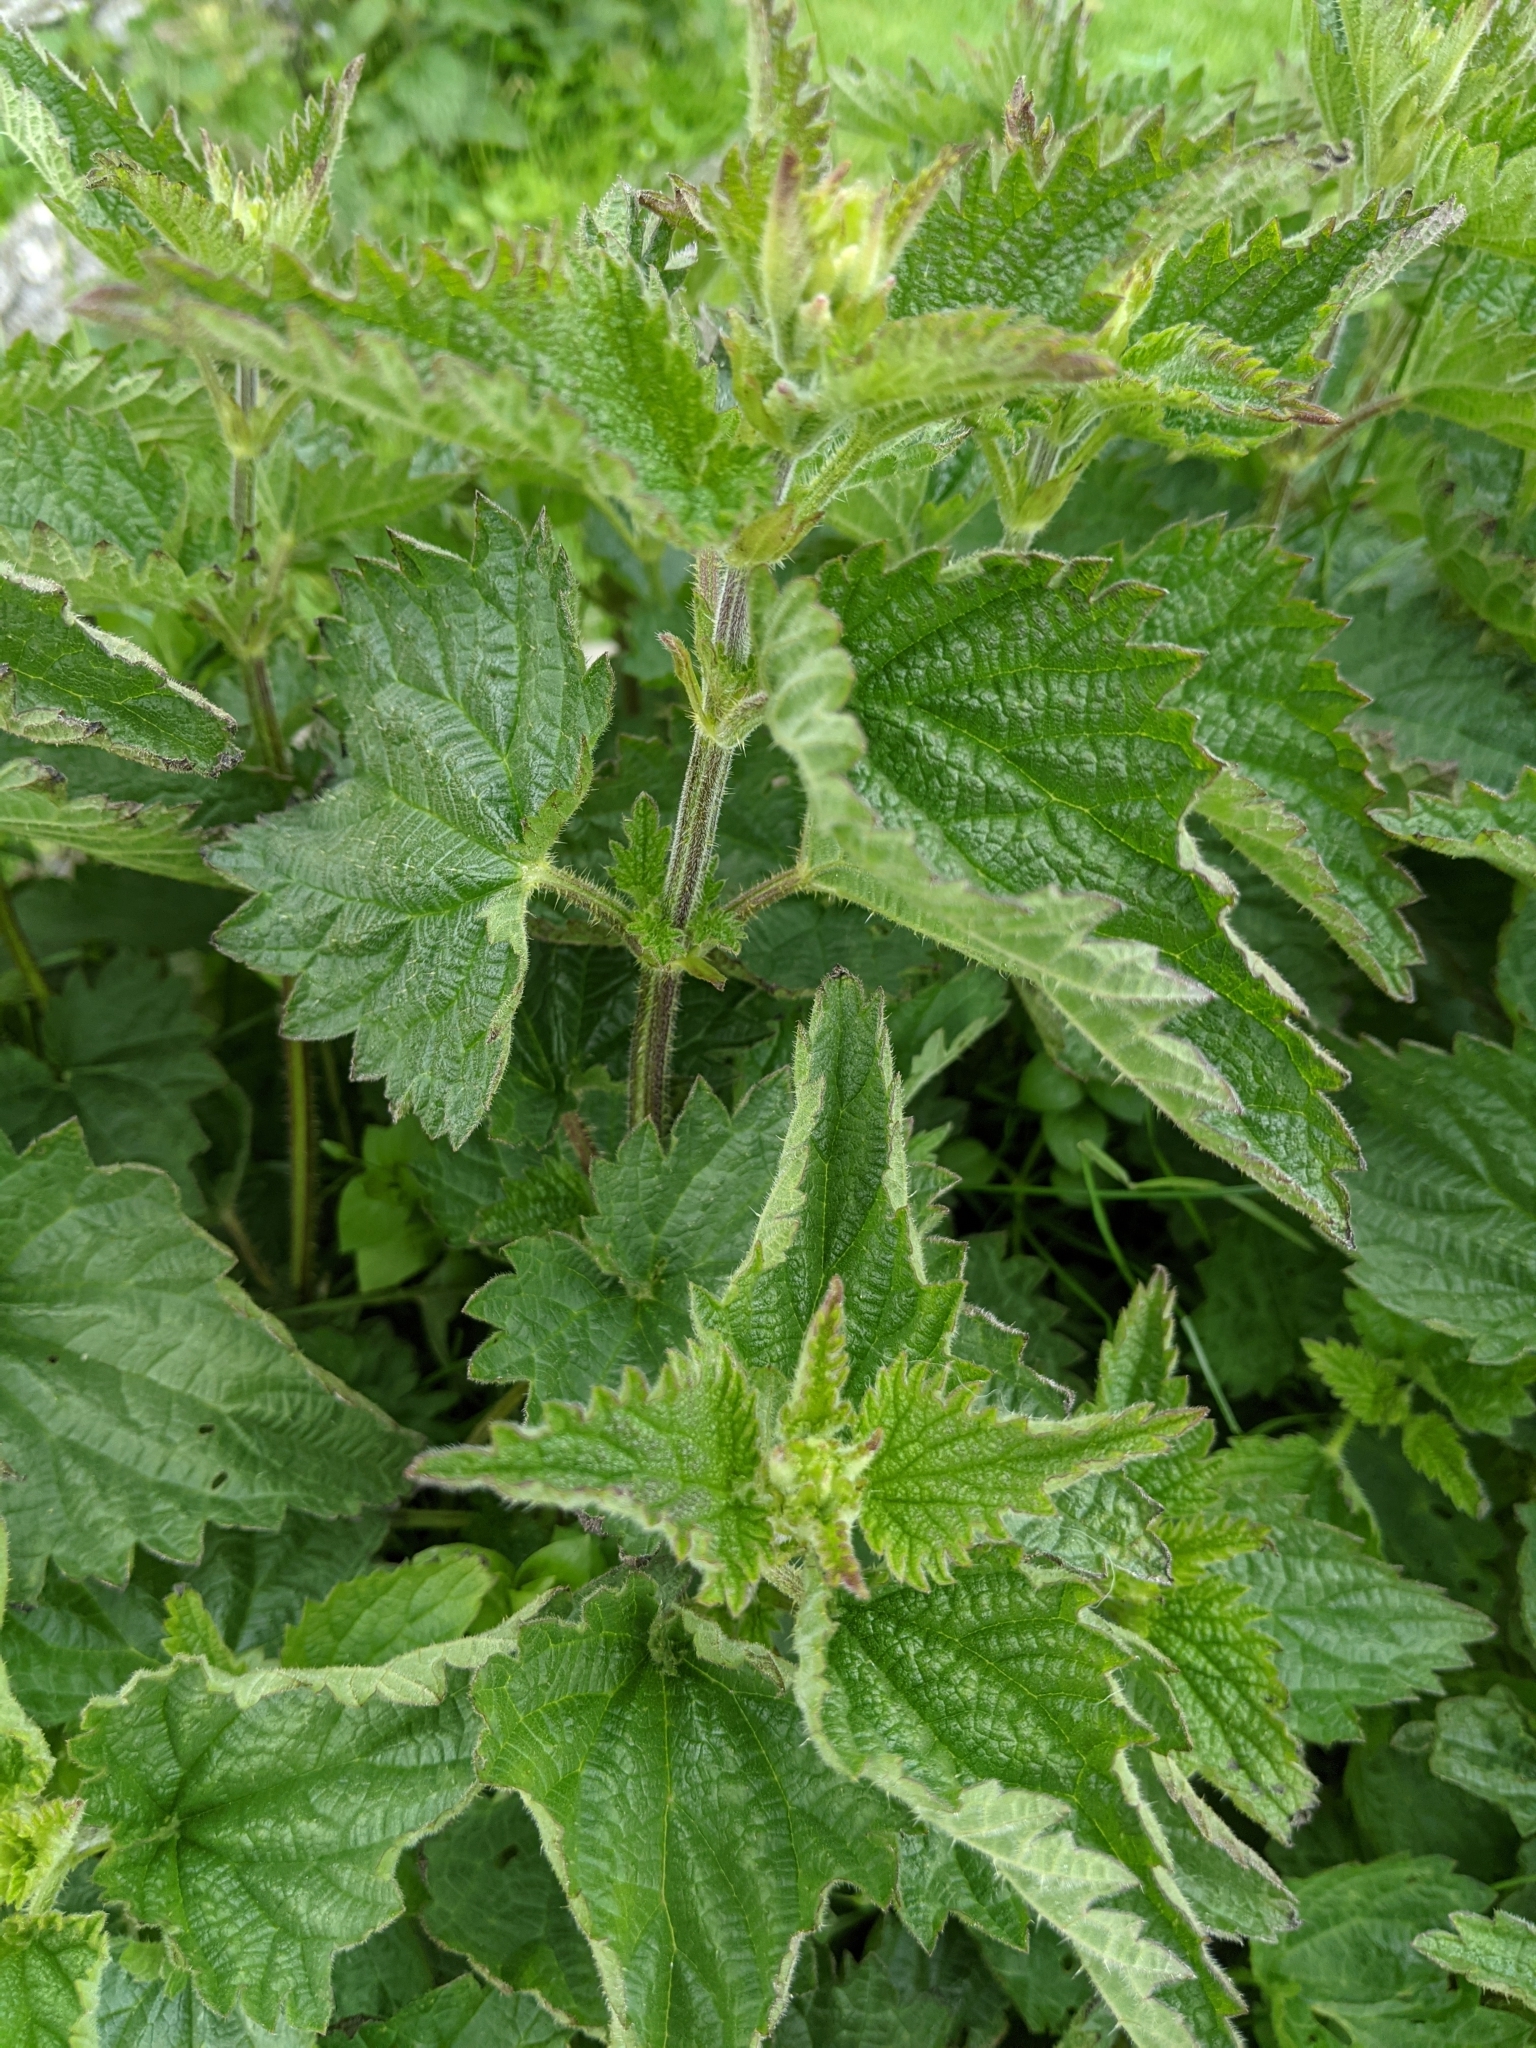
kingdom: Plantae
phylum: Tracheophyta
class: Magnoliopsida
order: Rosales
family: Urticaceae
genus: Urtica
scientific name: Urtica dioica
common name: Common nettle
